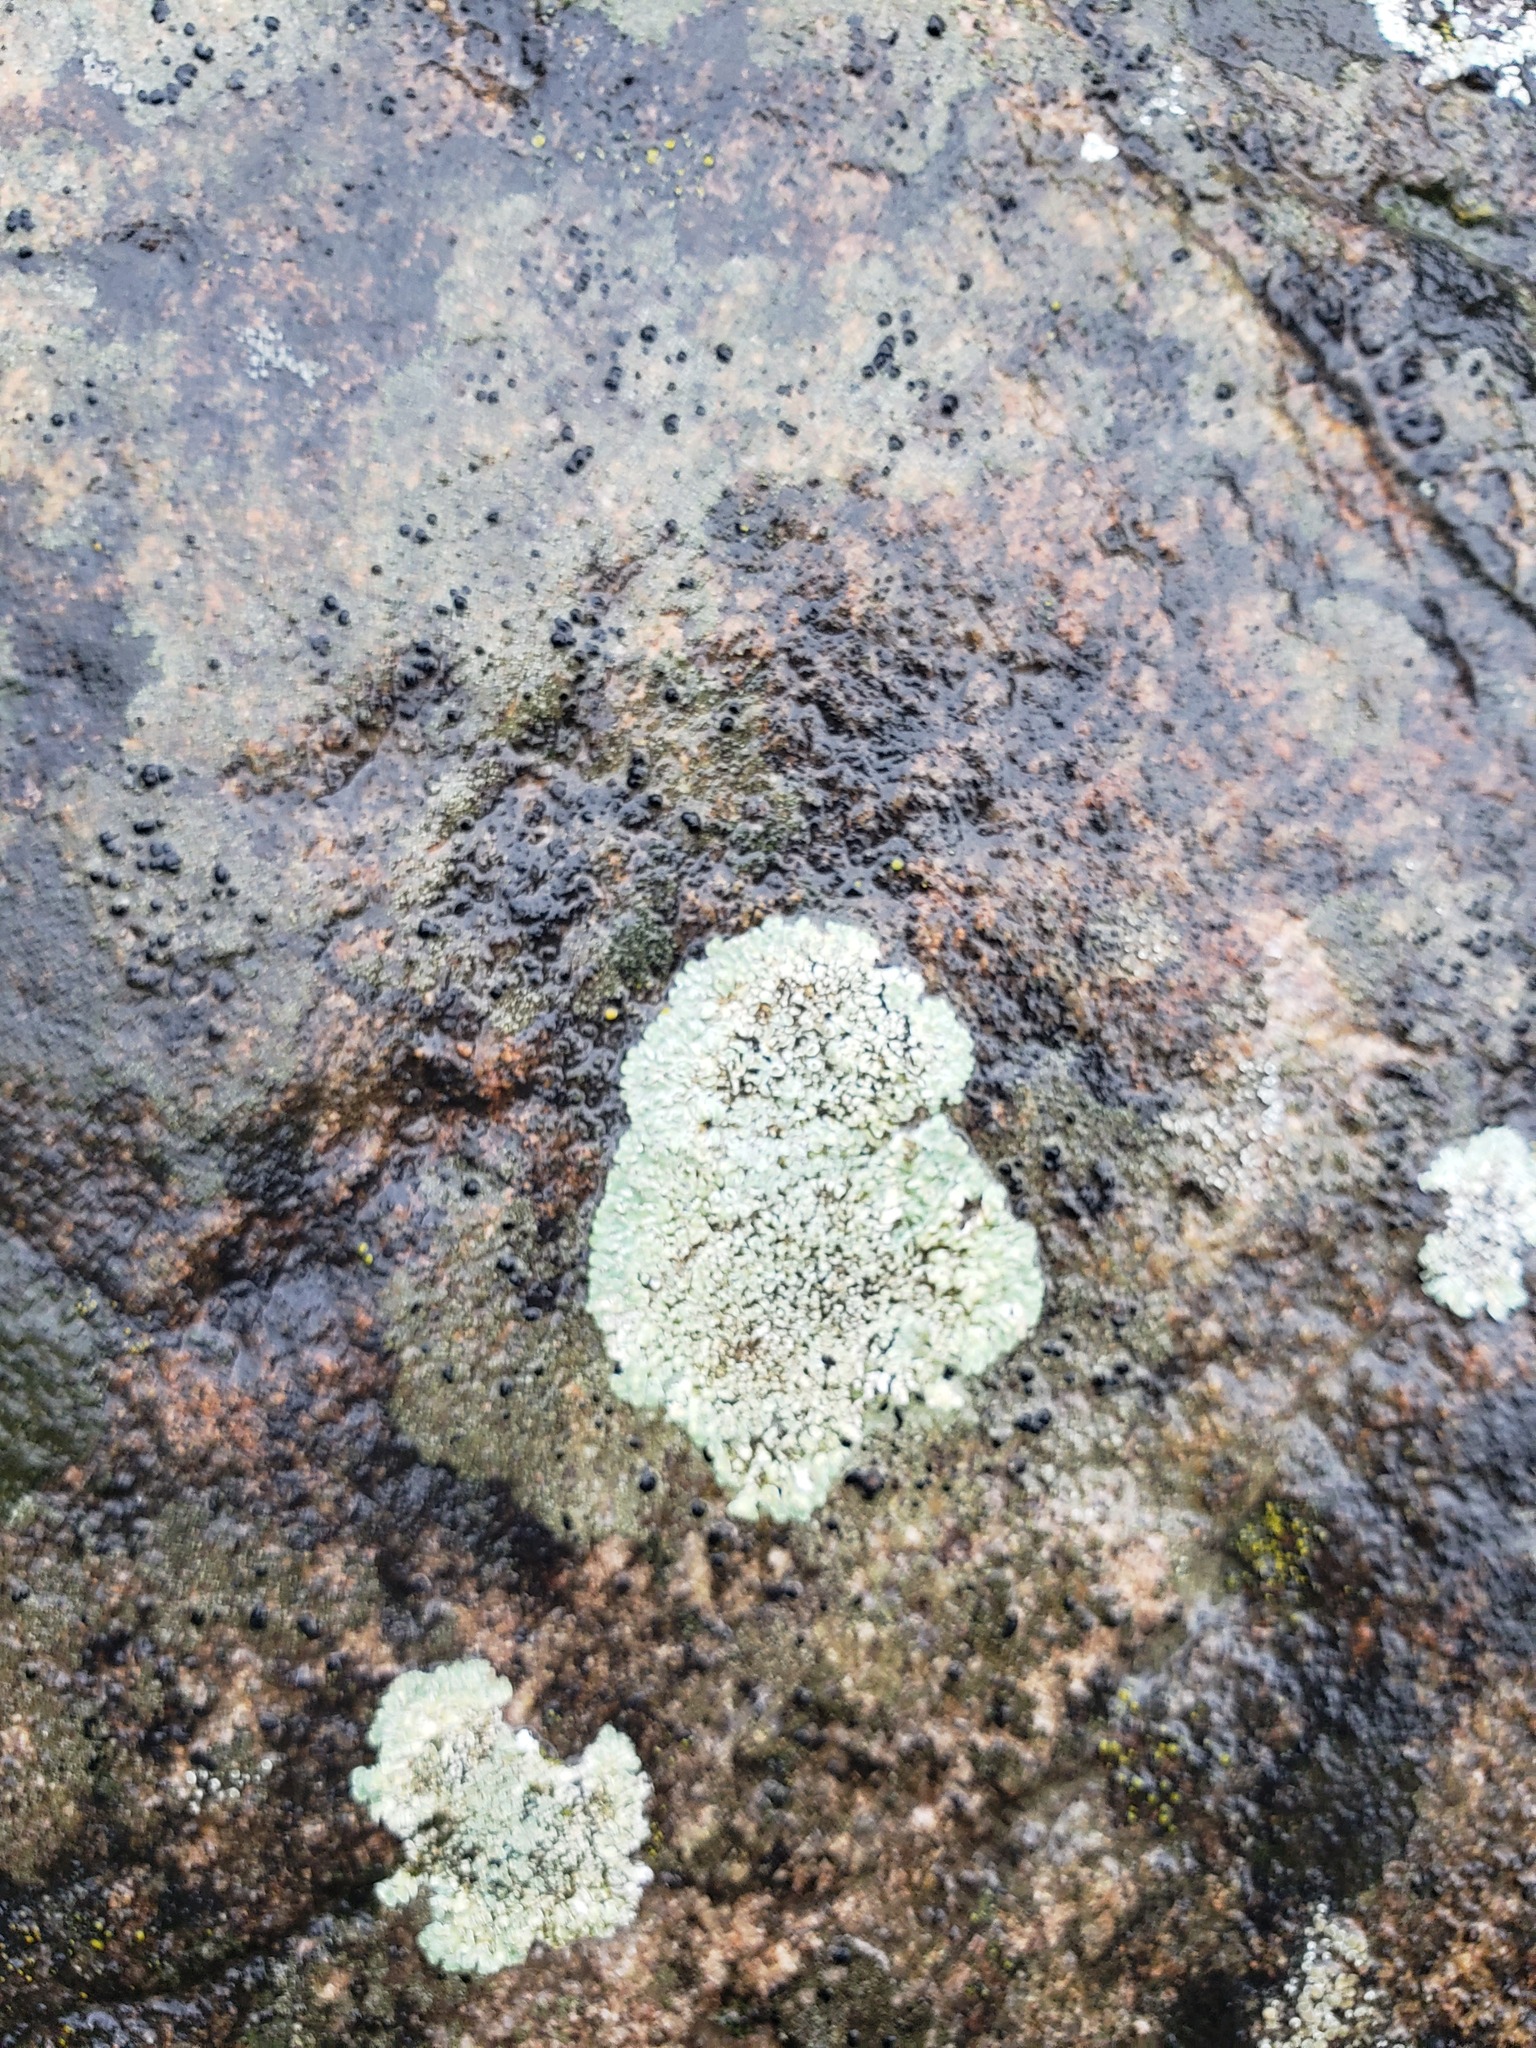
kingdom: Fungi
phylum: Ascomycota
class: Lecanoromycetes
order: Lecanorales
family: Lecanoraceae
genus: Protoparmeliopsis
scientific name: Protoparmeliopsis muralis
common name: Stonewall rim lichen
